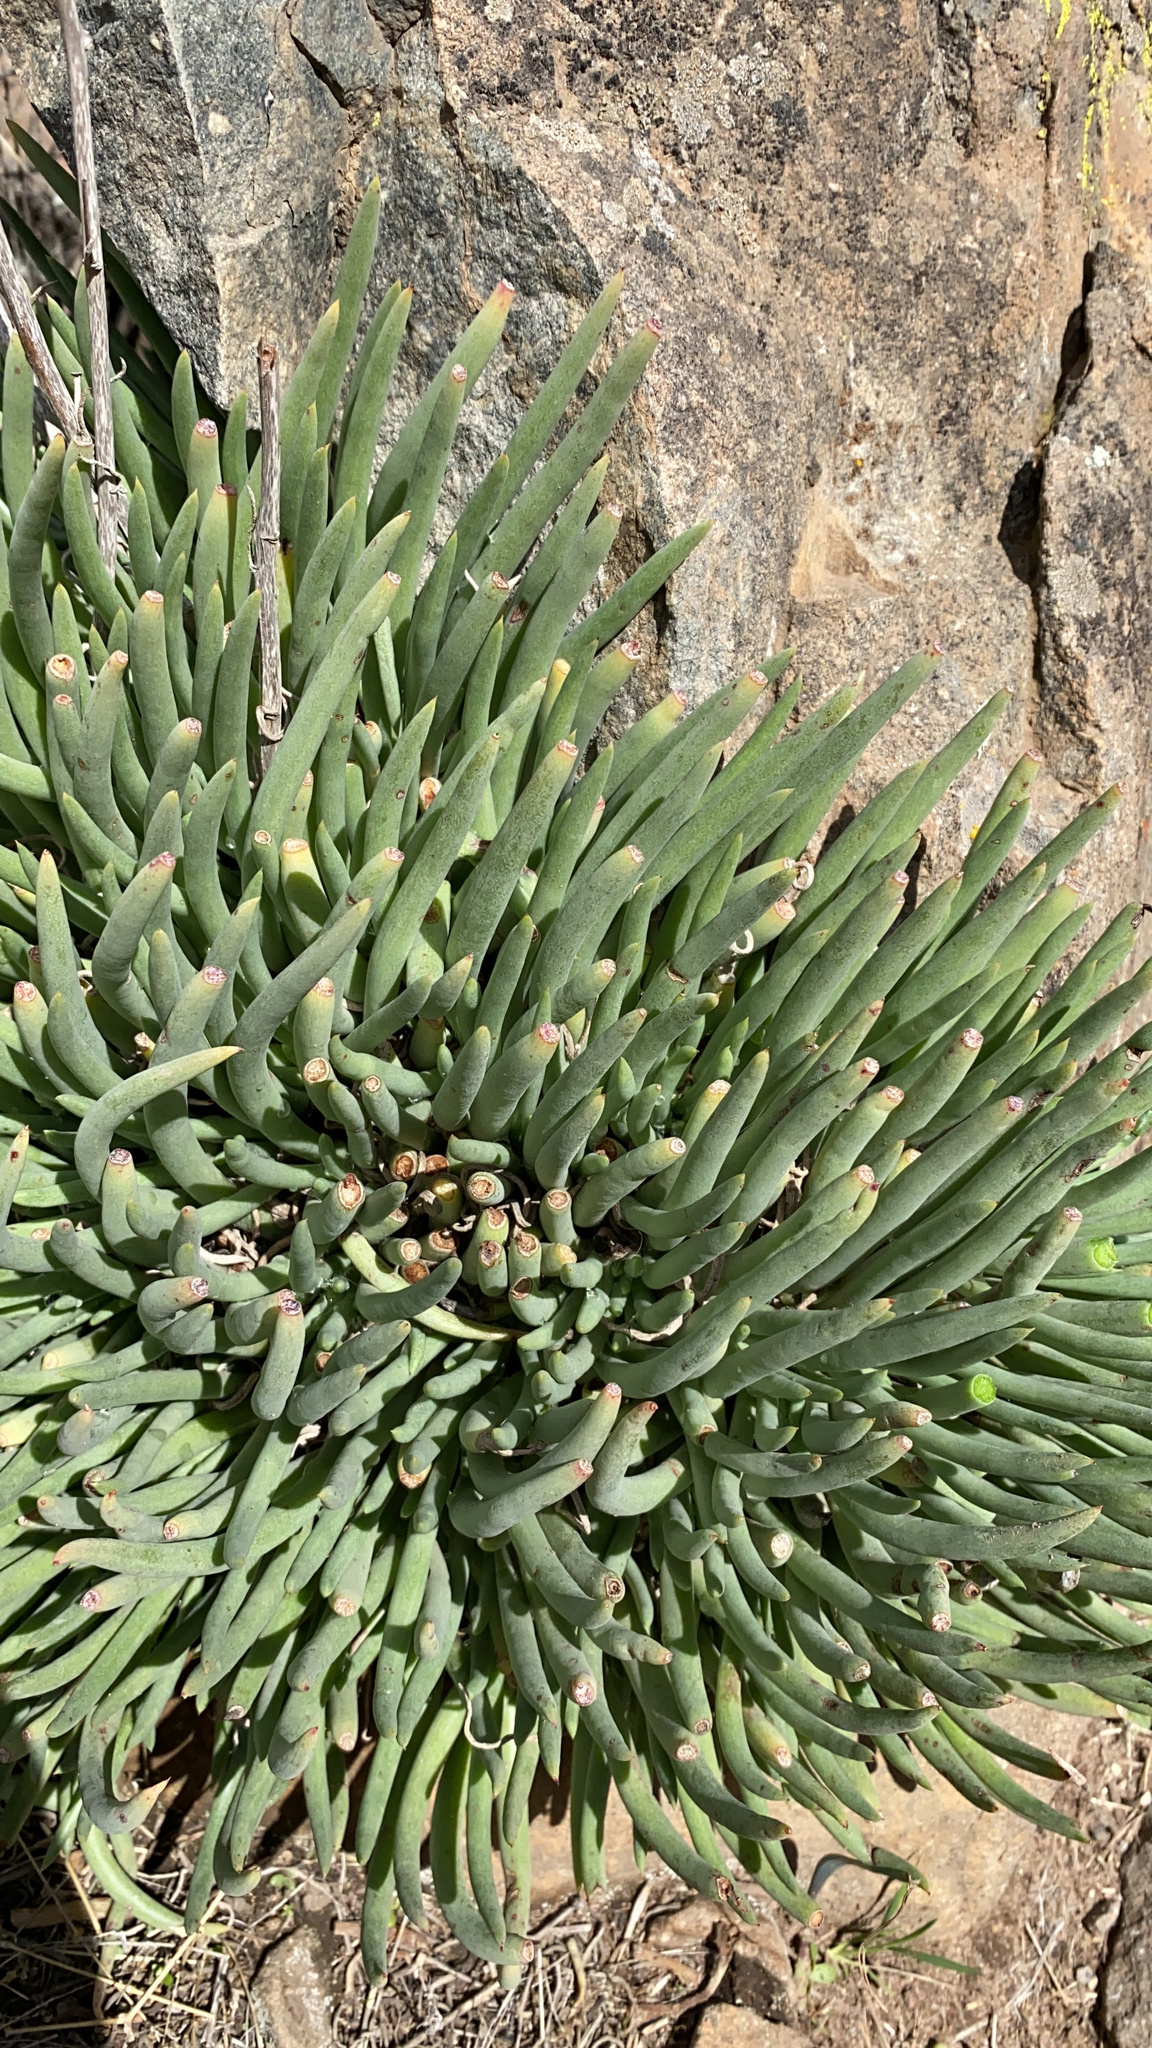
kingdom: Plantae
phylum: Tracheophyta
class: Magnoliopsida
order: Saxifragales
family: Crassulaceae
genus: Dudleya
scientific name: Dudleya edulis
